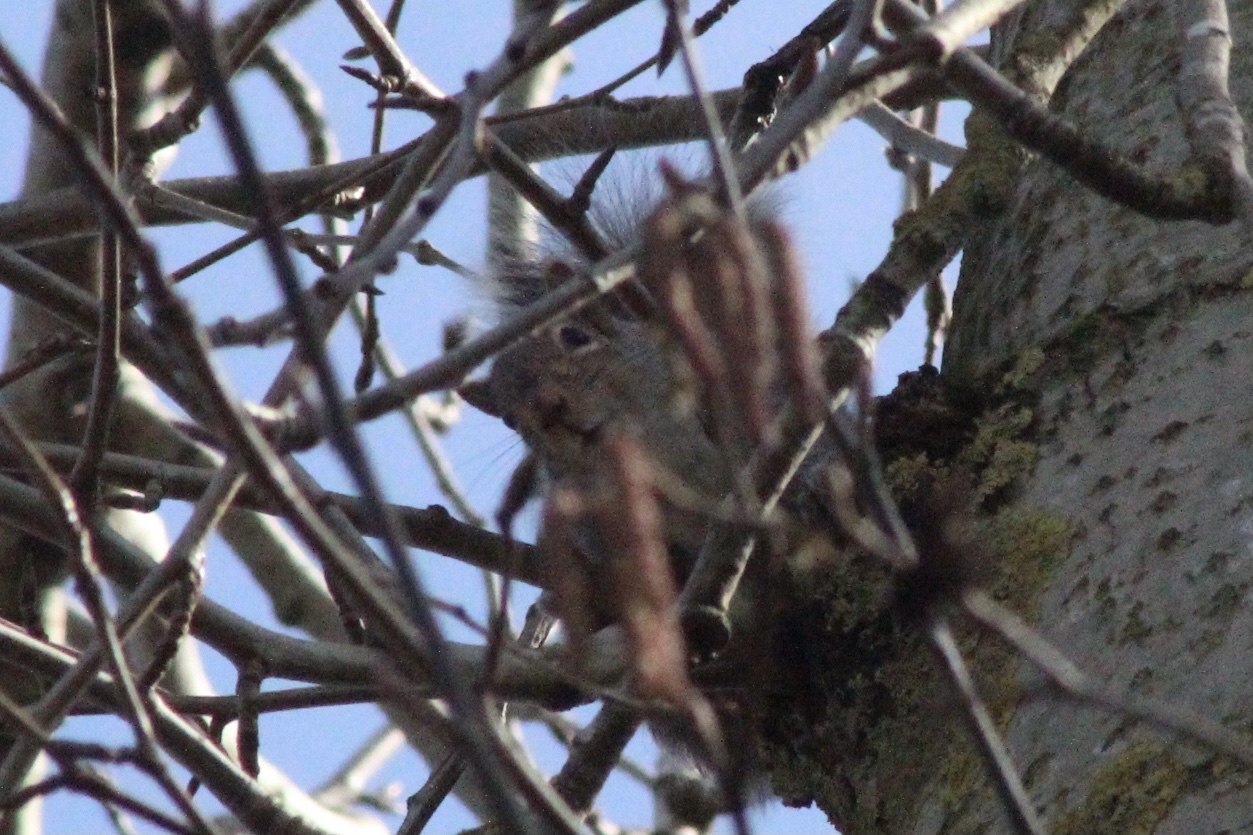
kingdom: Animalia
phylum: Chordata
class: Mammalia
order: Rodentia
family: Sciuridae
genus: Sciurus
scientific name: Sciurus carolinensis
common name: Eastern gray squirrel
